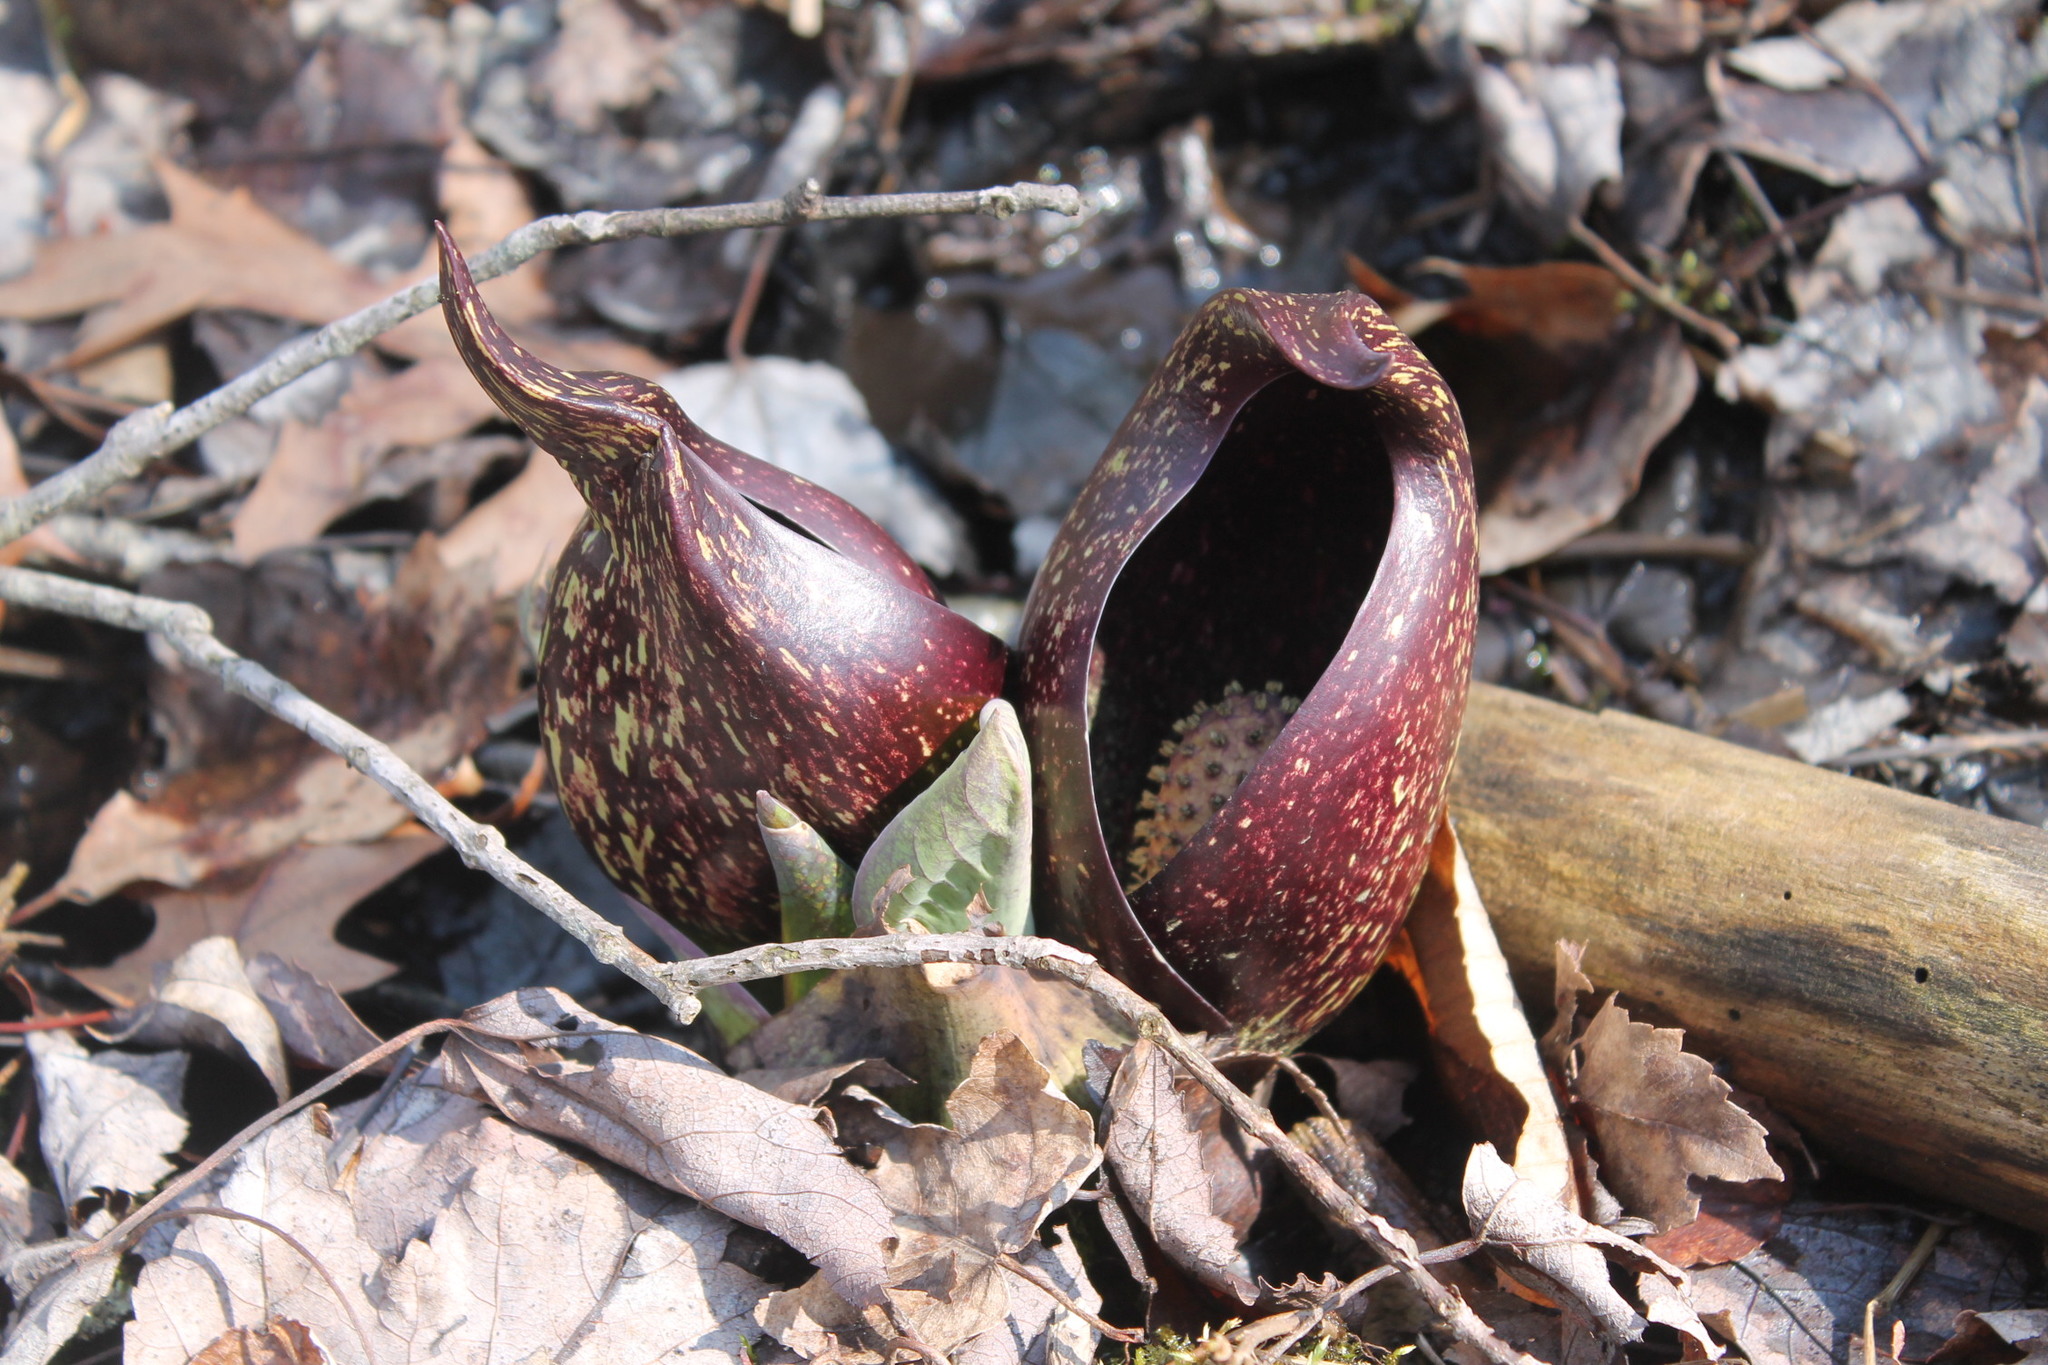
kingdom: Plantae
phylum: Tracheophyta
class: Liliopsida
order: Alismatales
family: Araceae
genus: Symplocarpus
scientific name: Symplocarpus foetidus
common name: Eastern skunk cabbage
